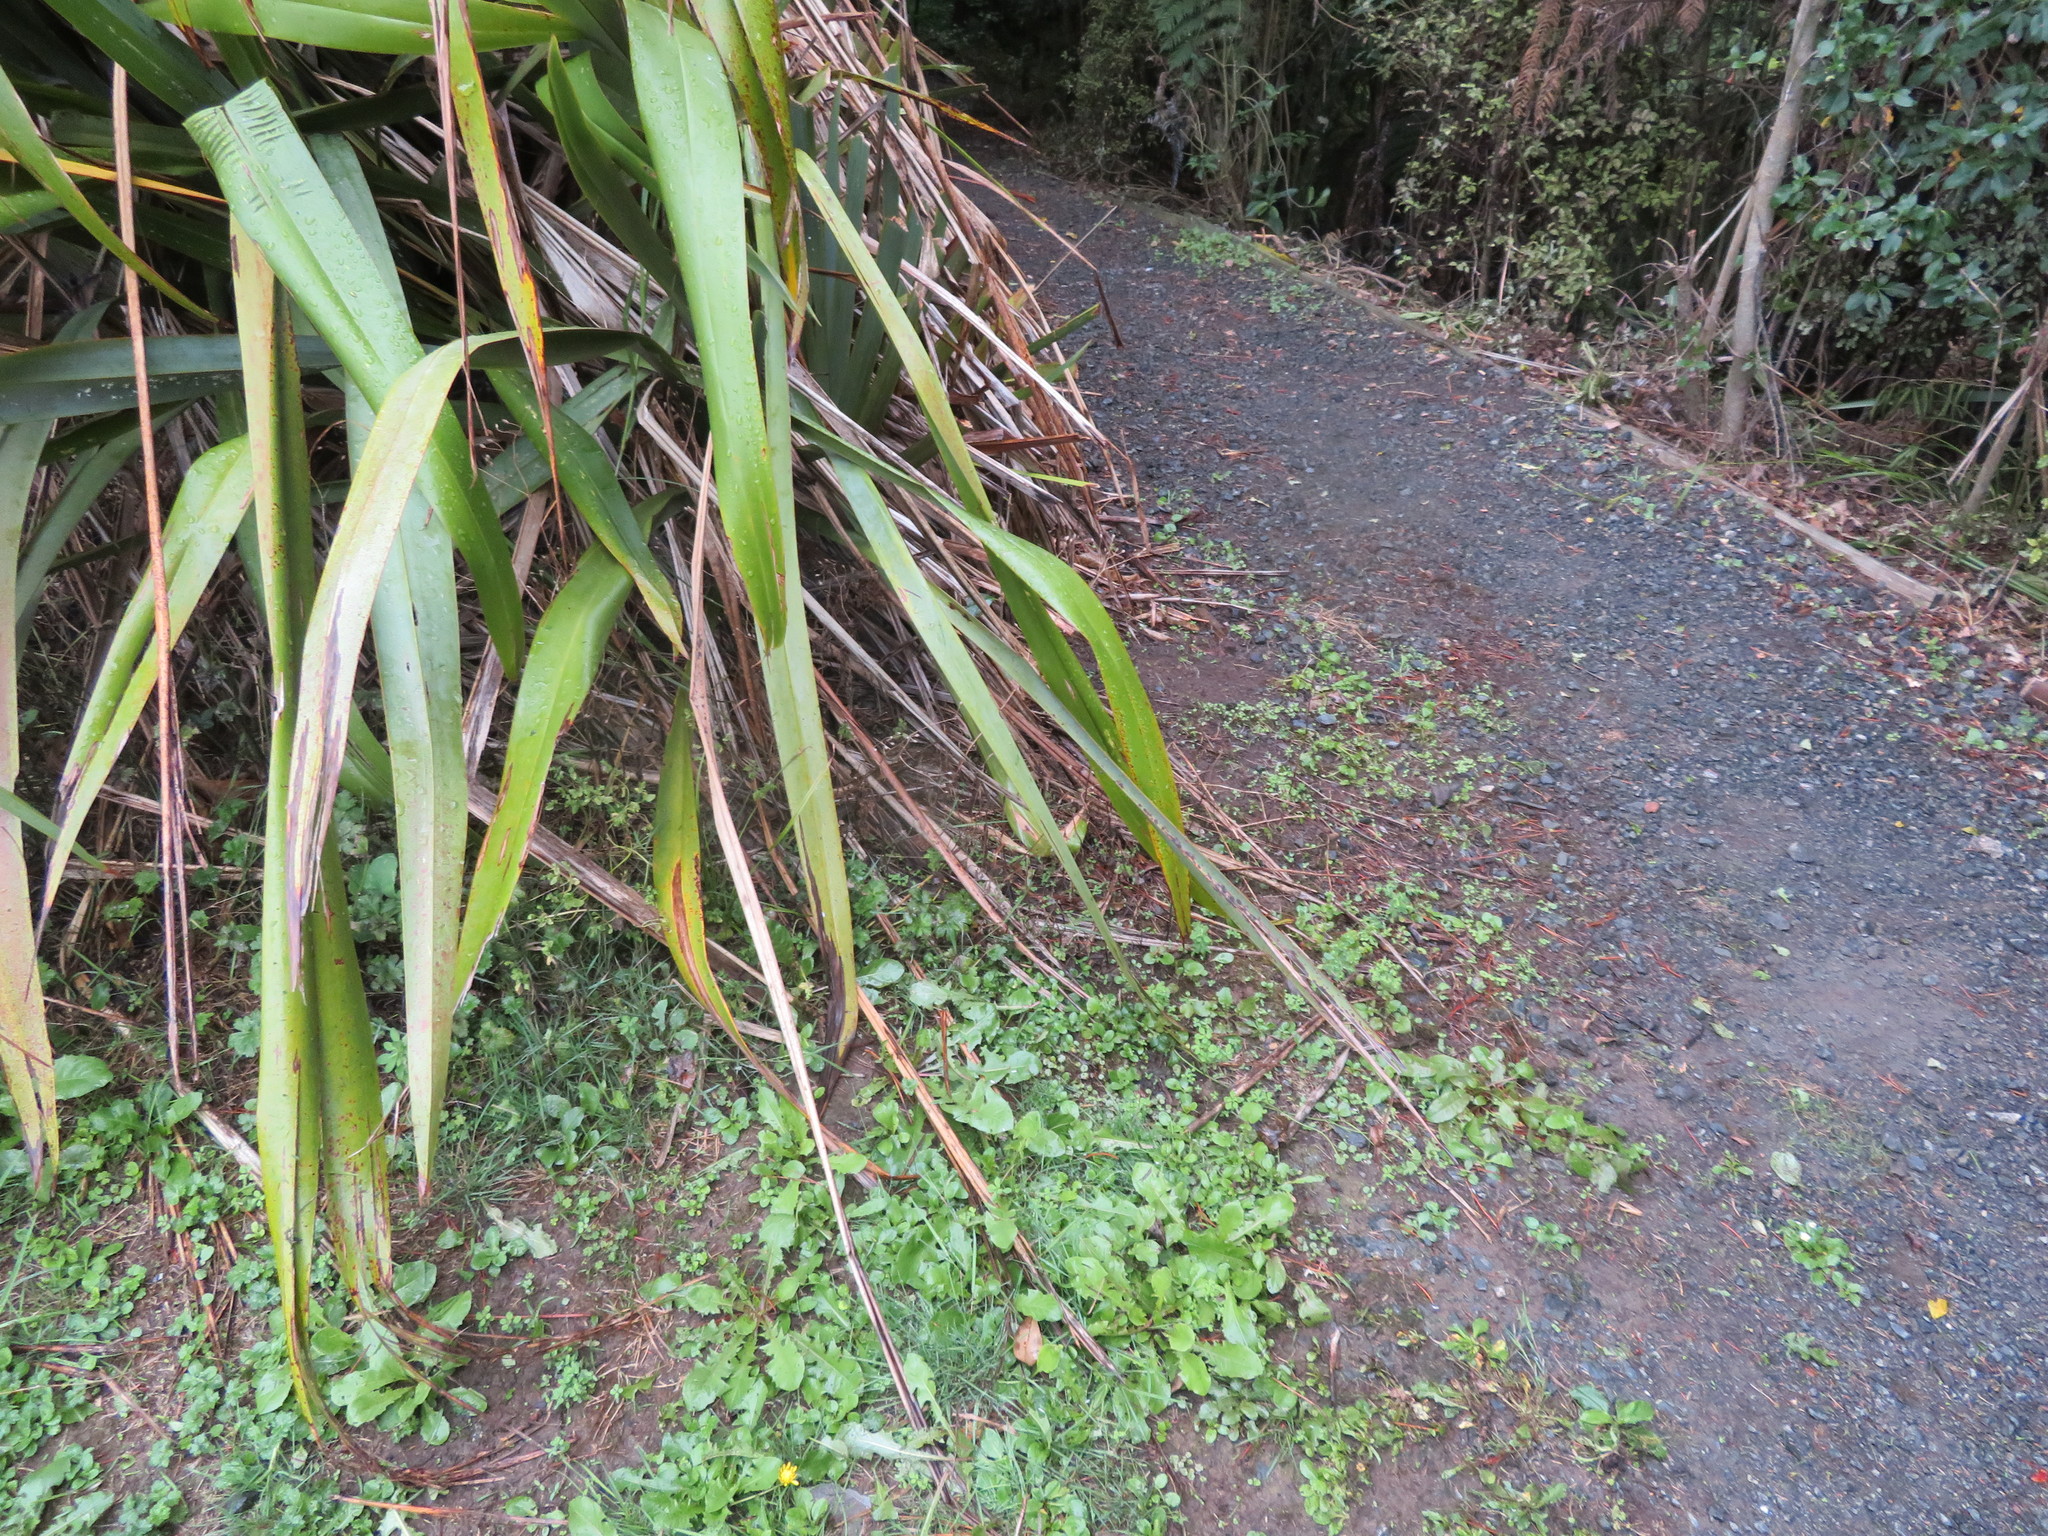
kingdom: Plantae
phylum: Tracheophyta
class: Magnoliopsida
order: Asterales
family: Asteraceae
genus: Taraxacum
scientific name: Taraxacum officinale
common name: Common dandelion
